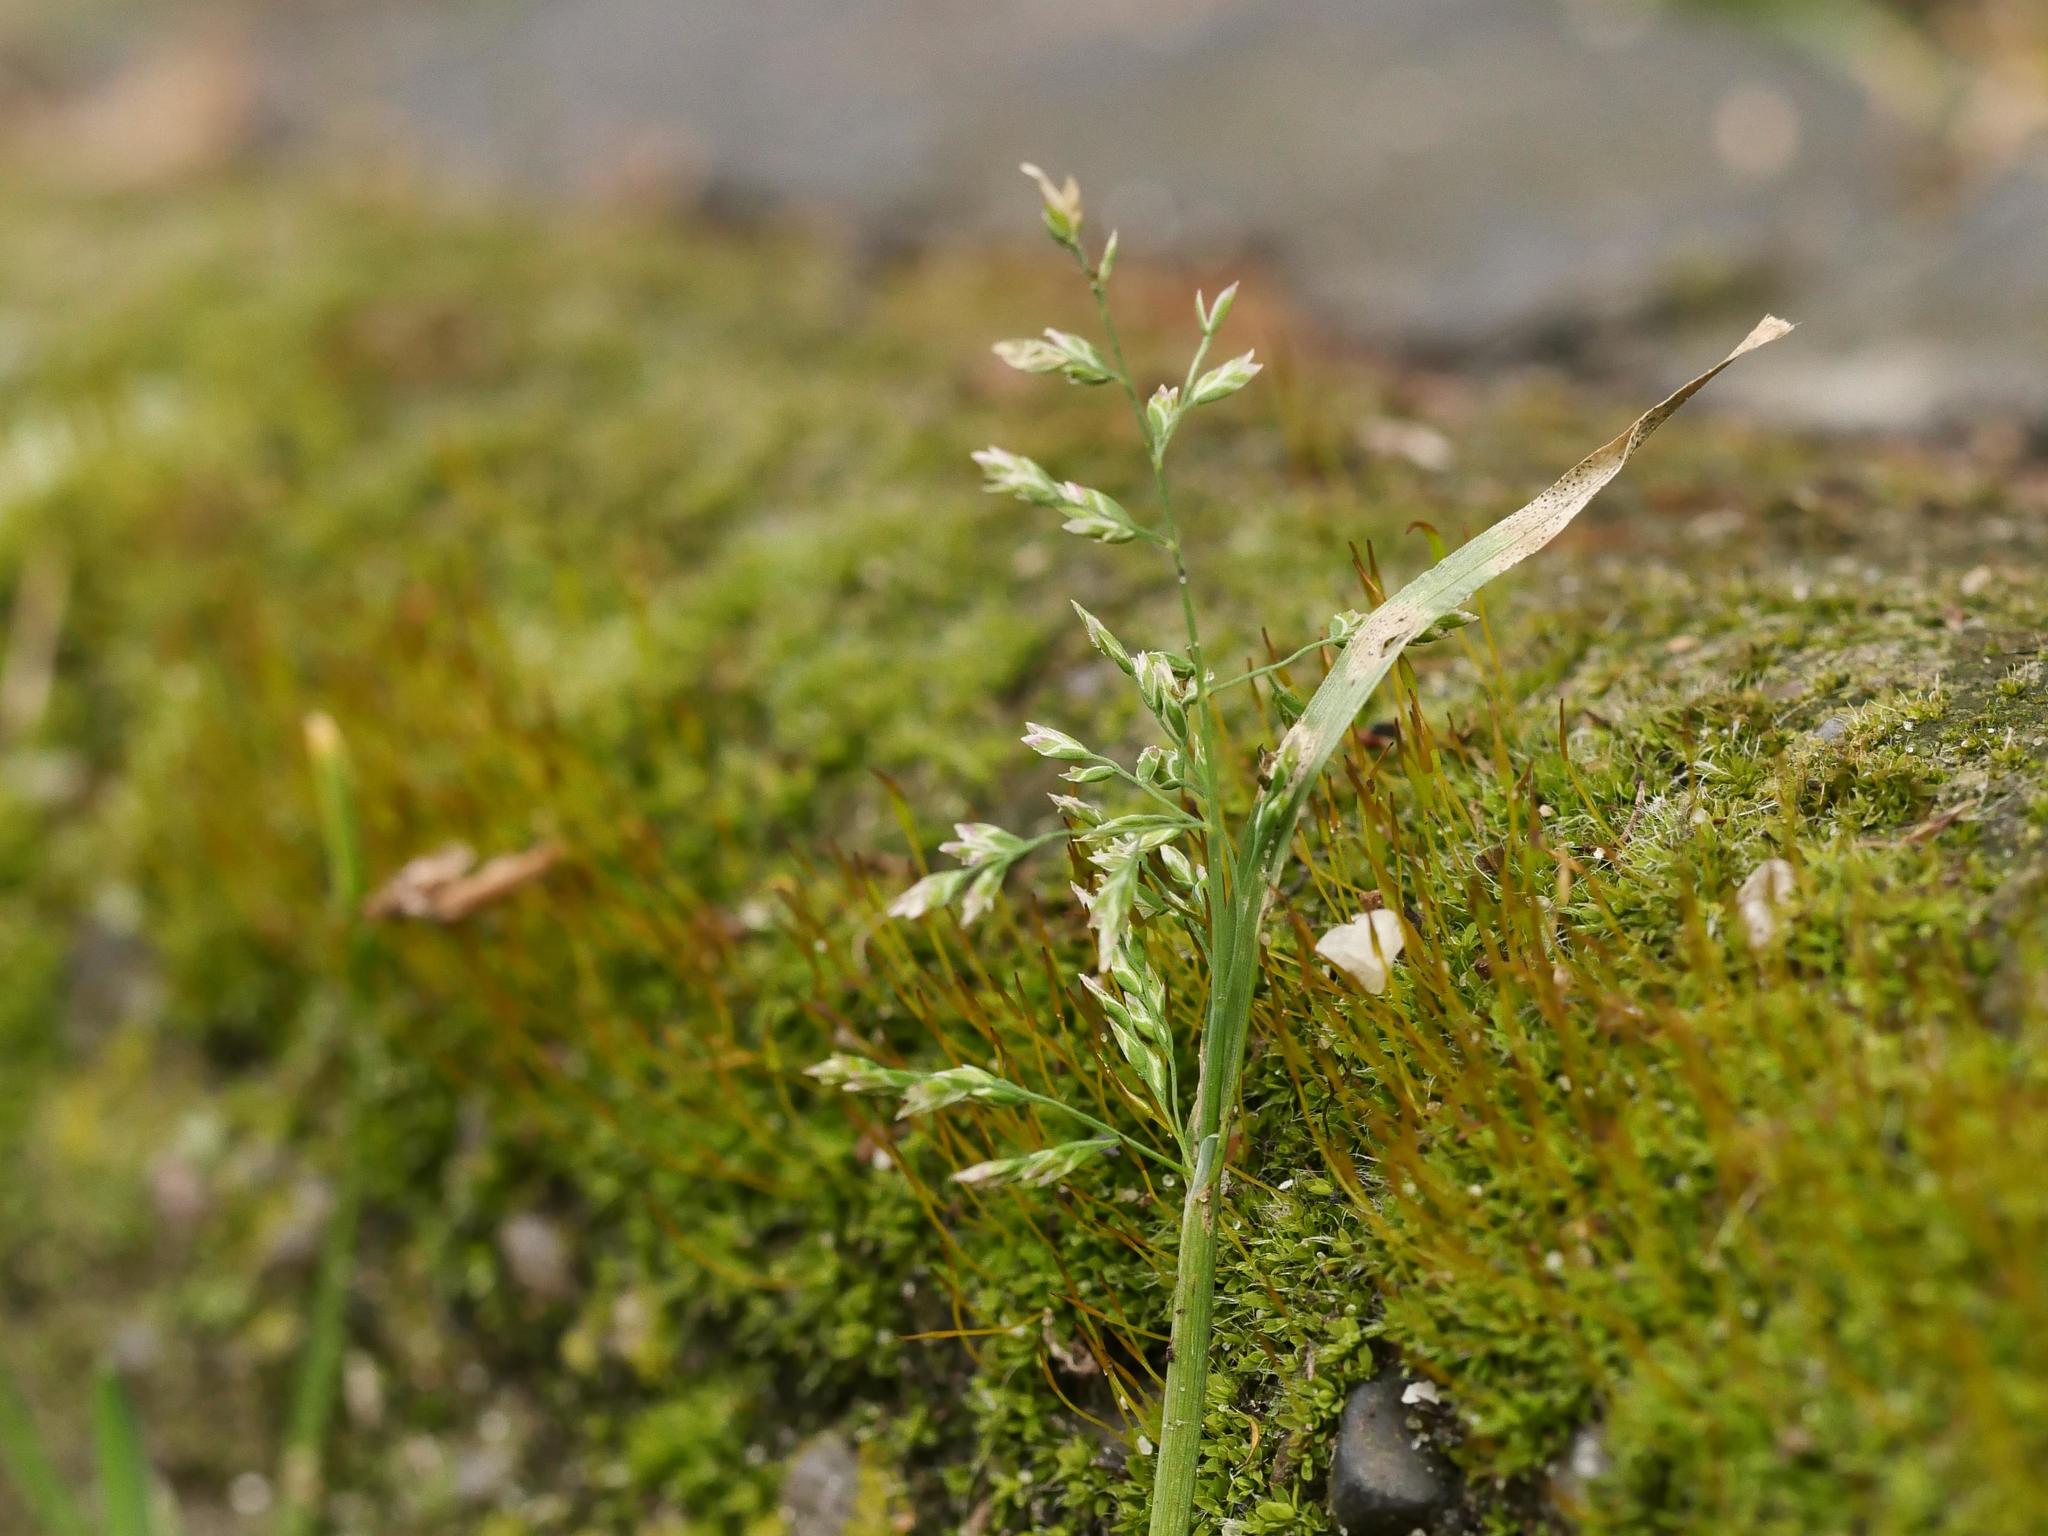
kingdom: Plantae
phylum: Tracheophyta
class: Liliopsida
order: Poales
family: Poaceae
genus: Poa
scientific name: Poa annua
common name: Annual bluegrass
